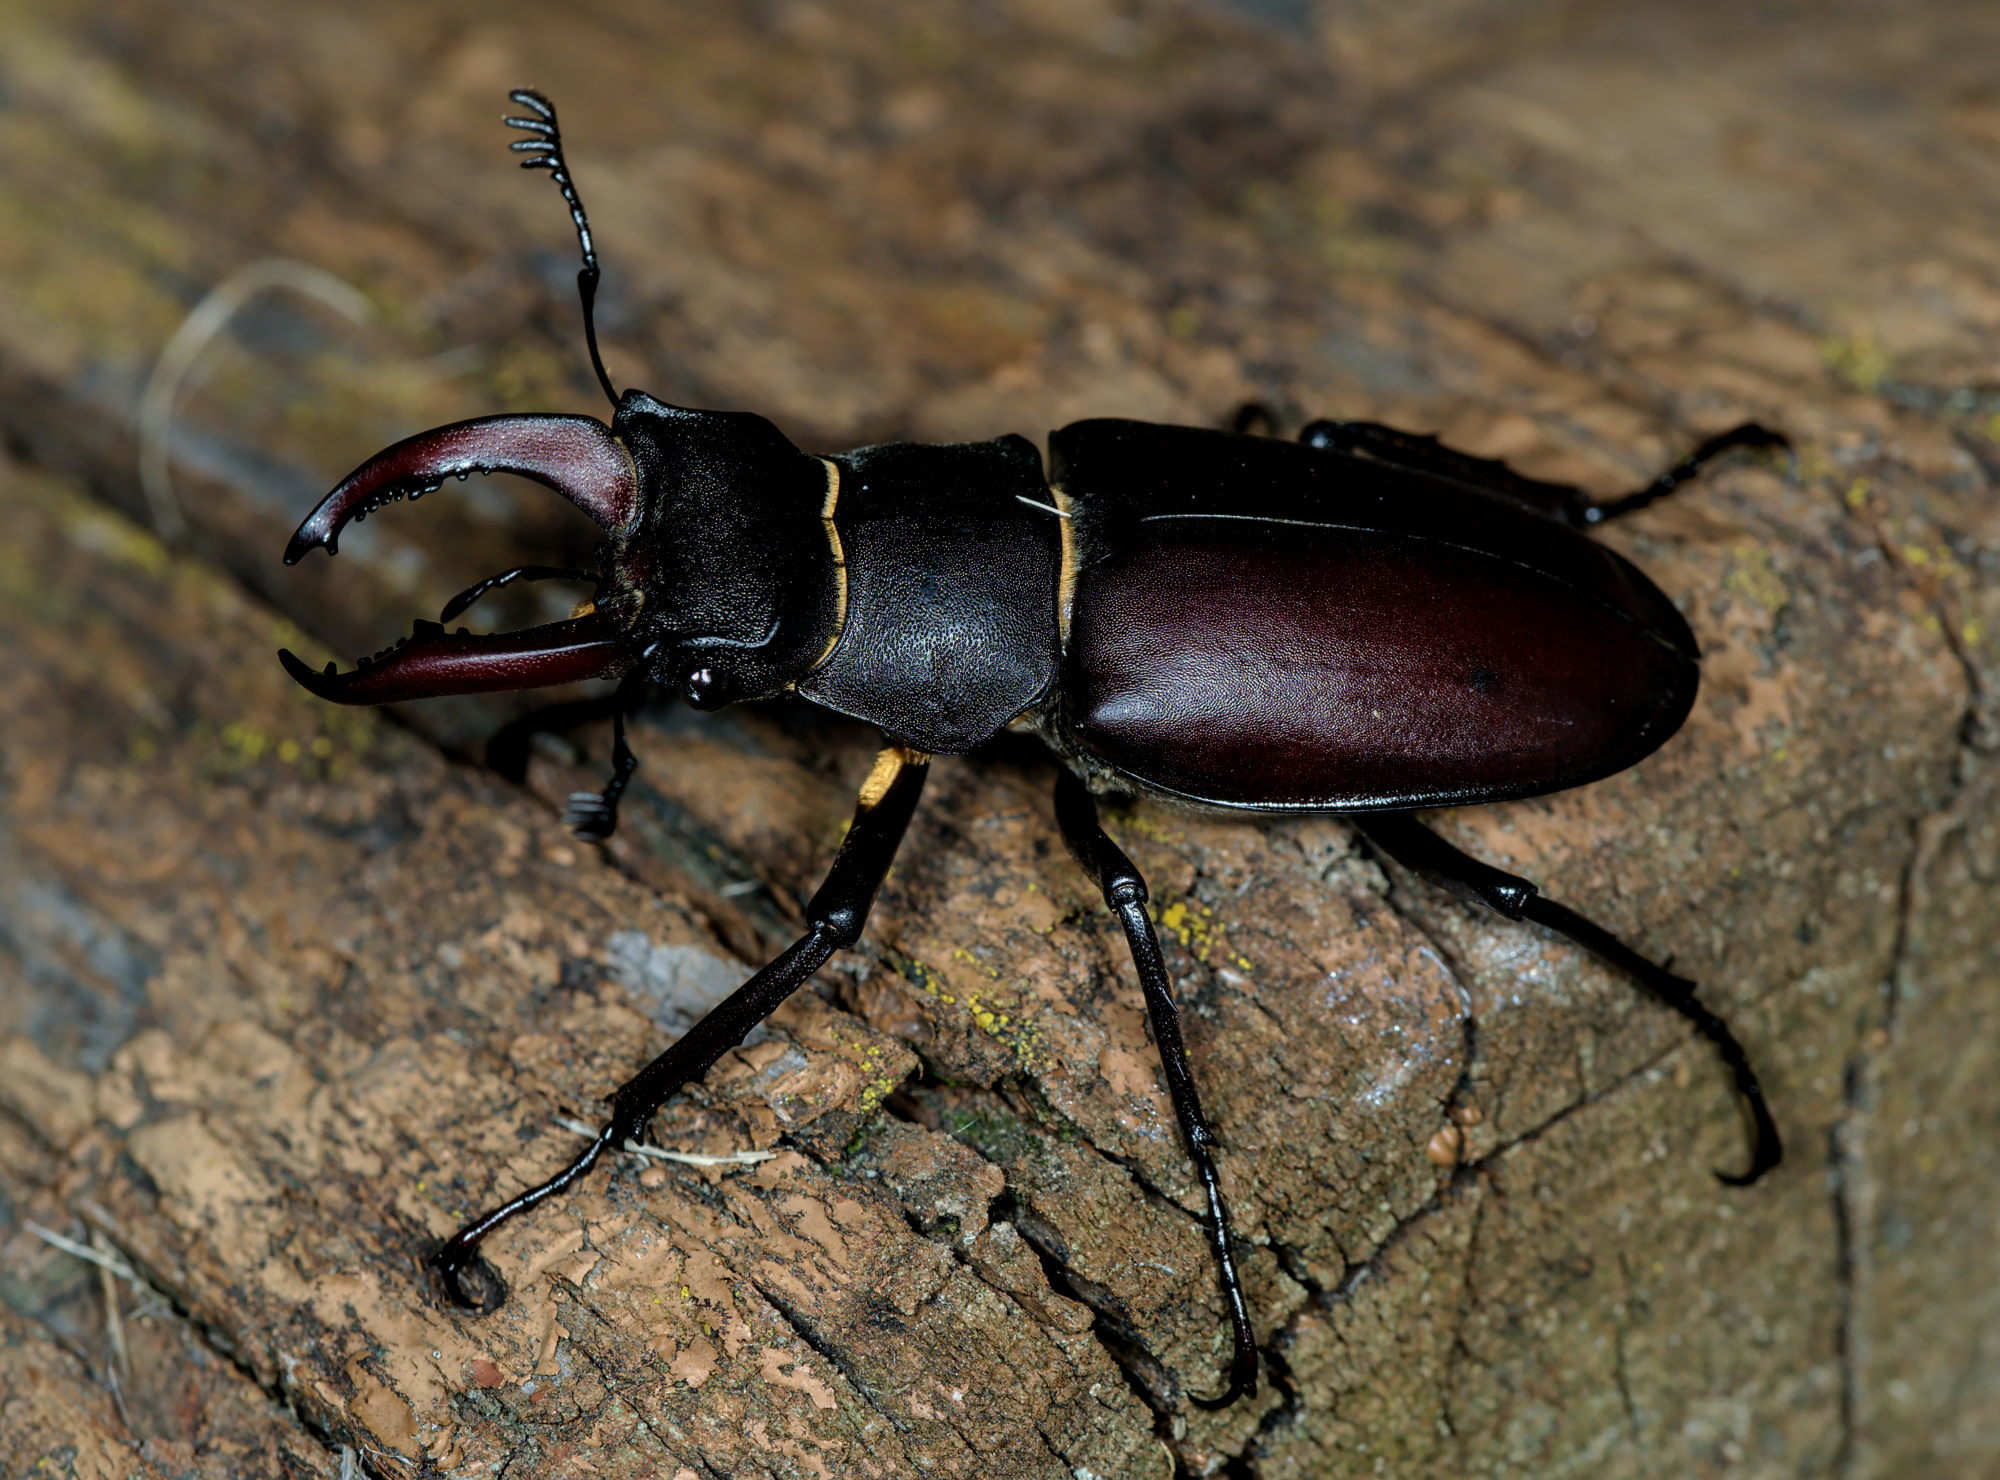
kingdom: Animalia
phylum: Arthropoda
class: Insecta
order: Coleoptera
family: Lucanidae
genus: Lucanus
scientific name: Lucanus cervus
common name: Stag beetle
